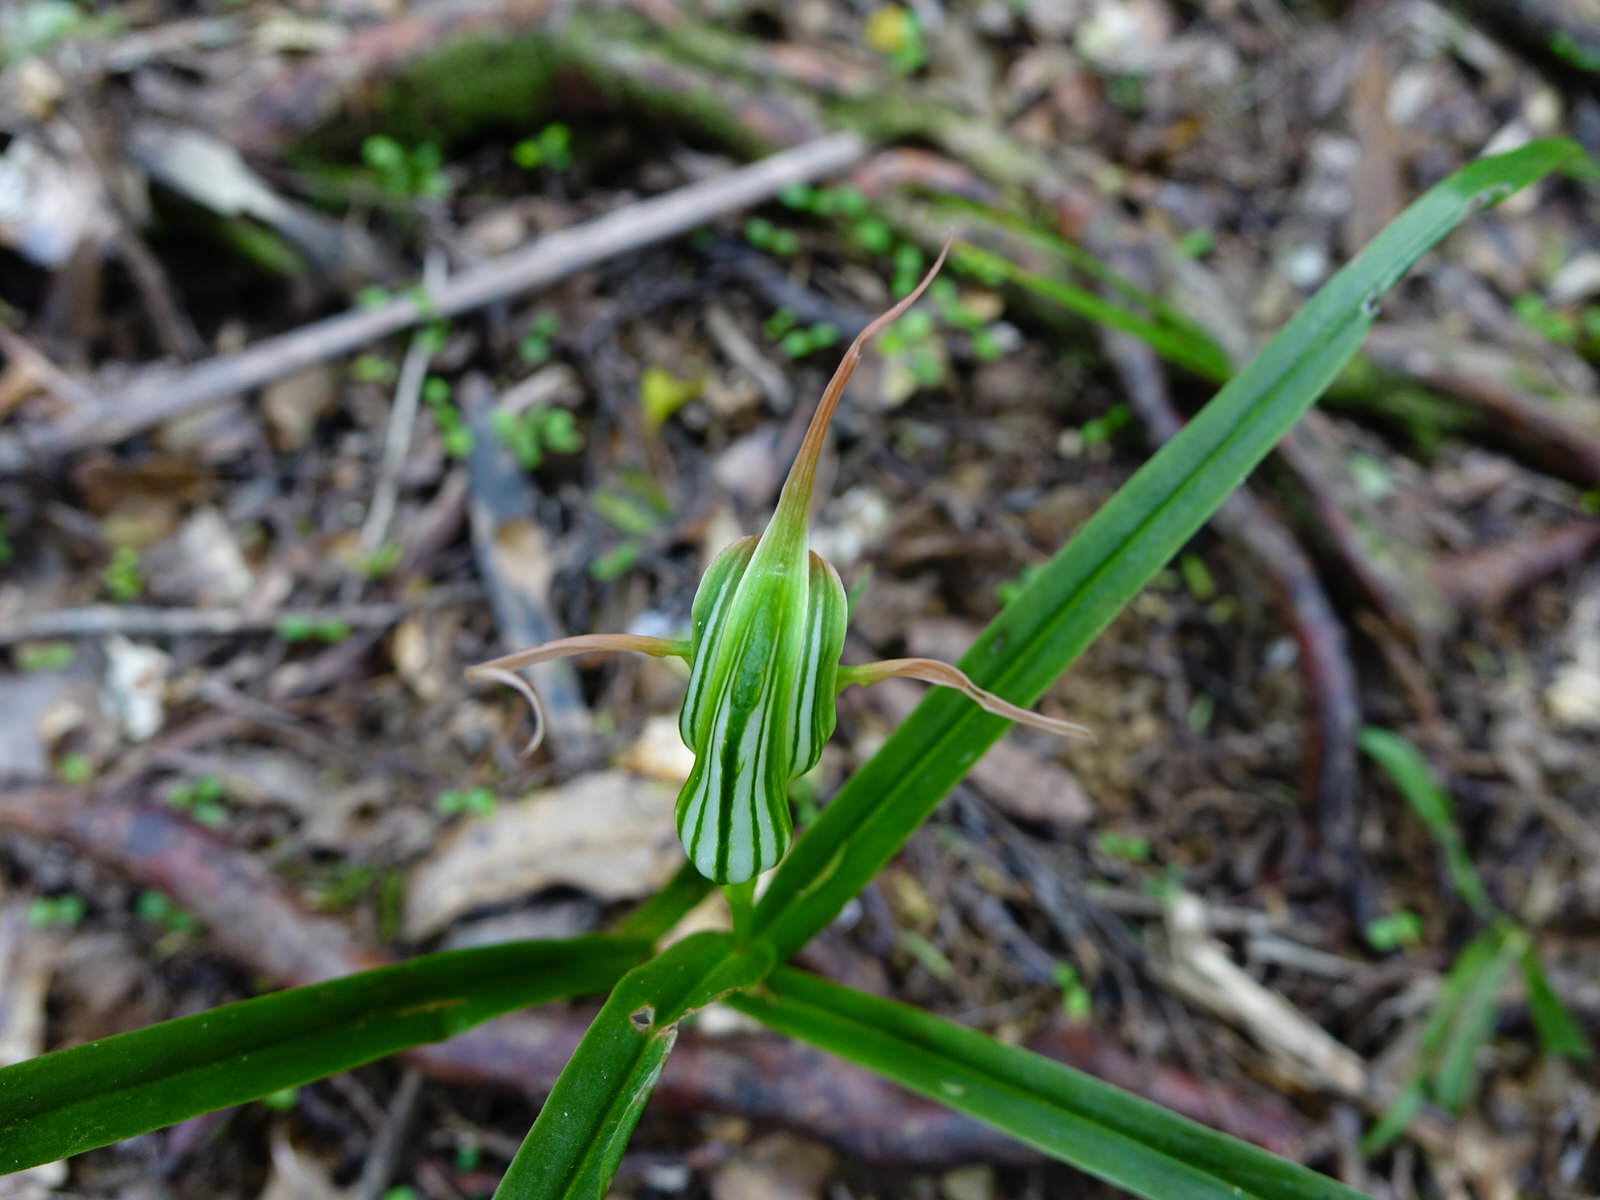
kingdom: Plantae
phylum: Tracheophyta
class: Liliopsida
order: Asparagales
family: Orchidaceae
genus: Pterostylis
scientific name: Pterostylis banksii
